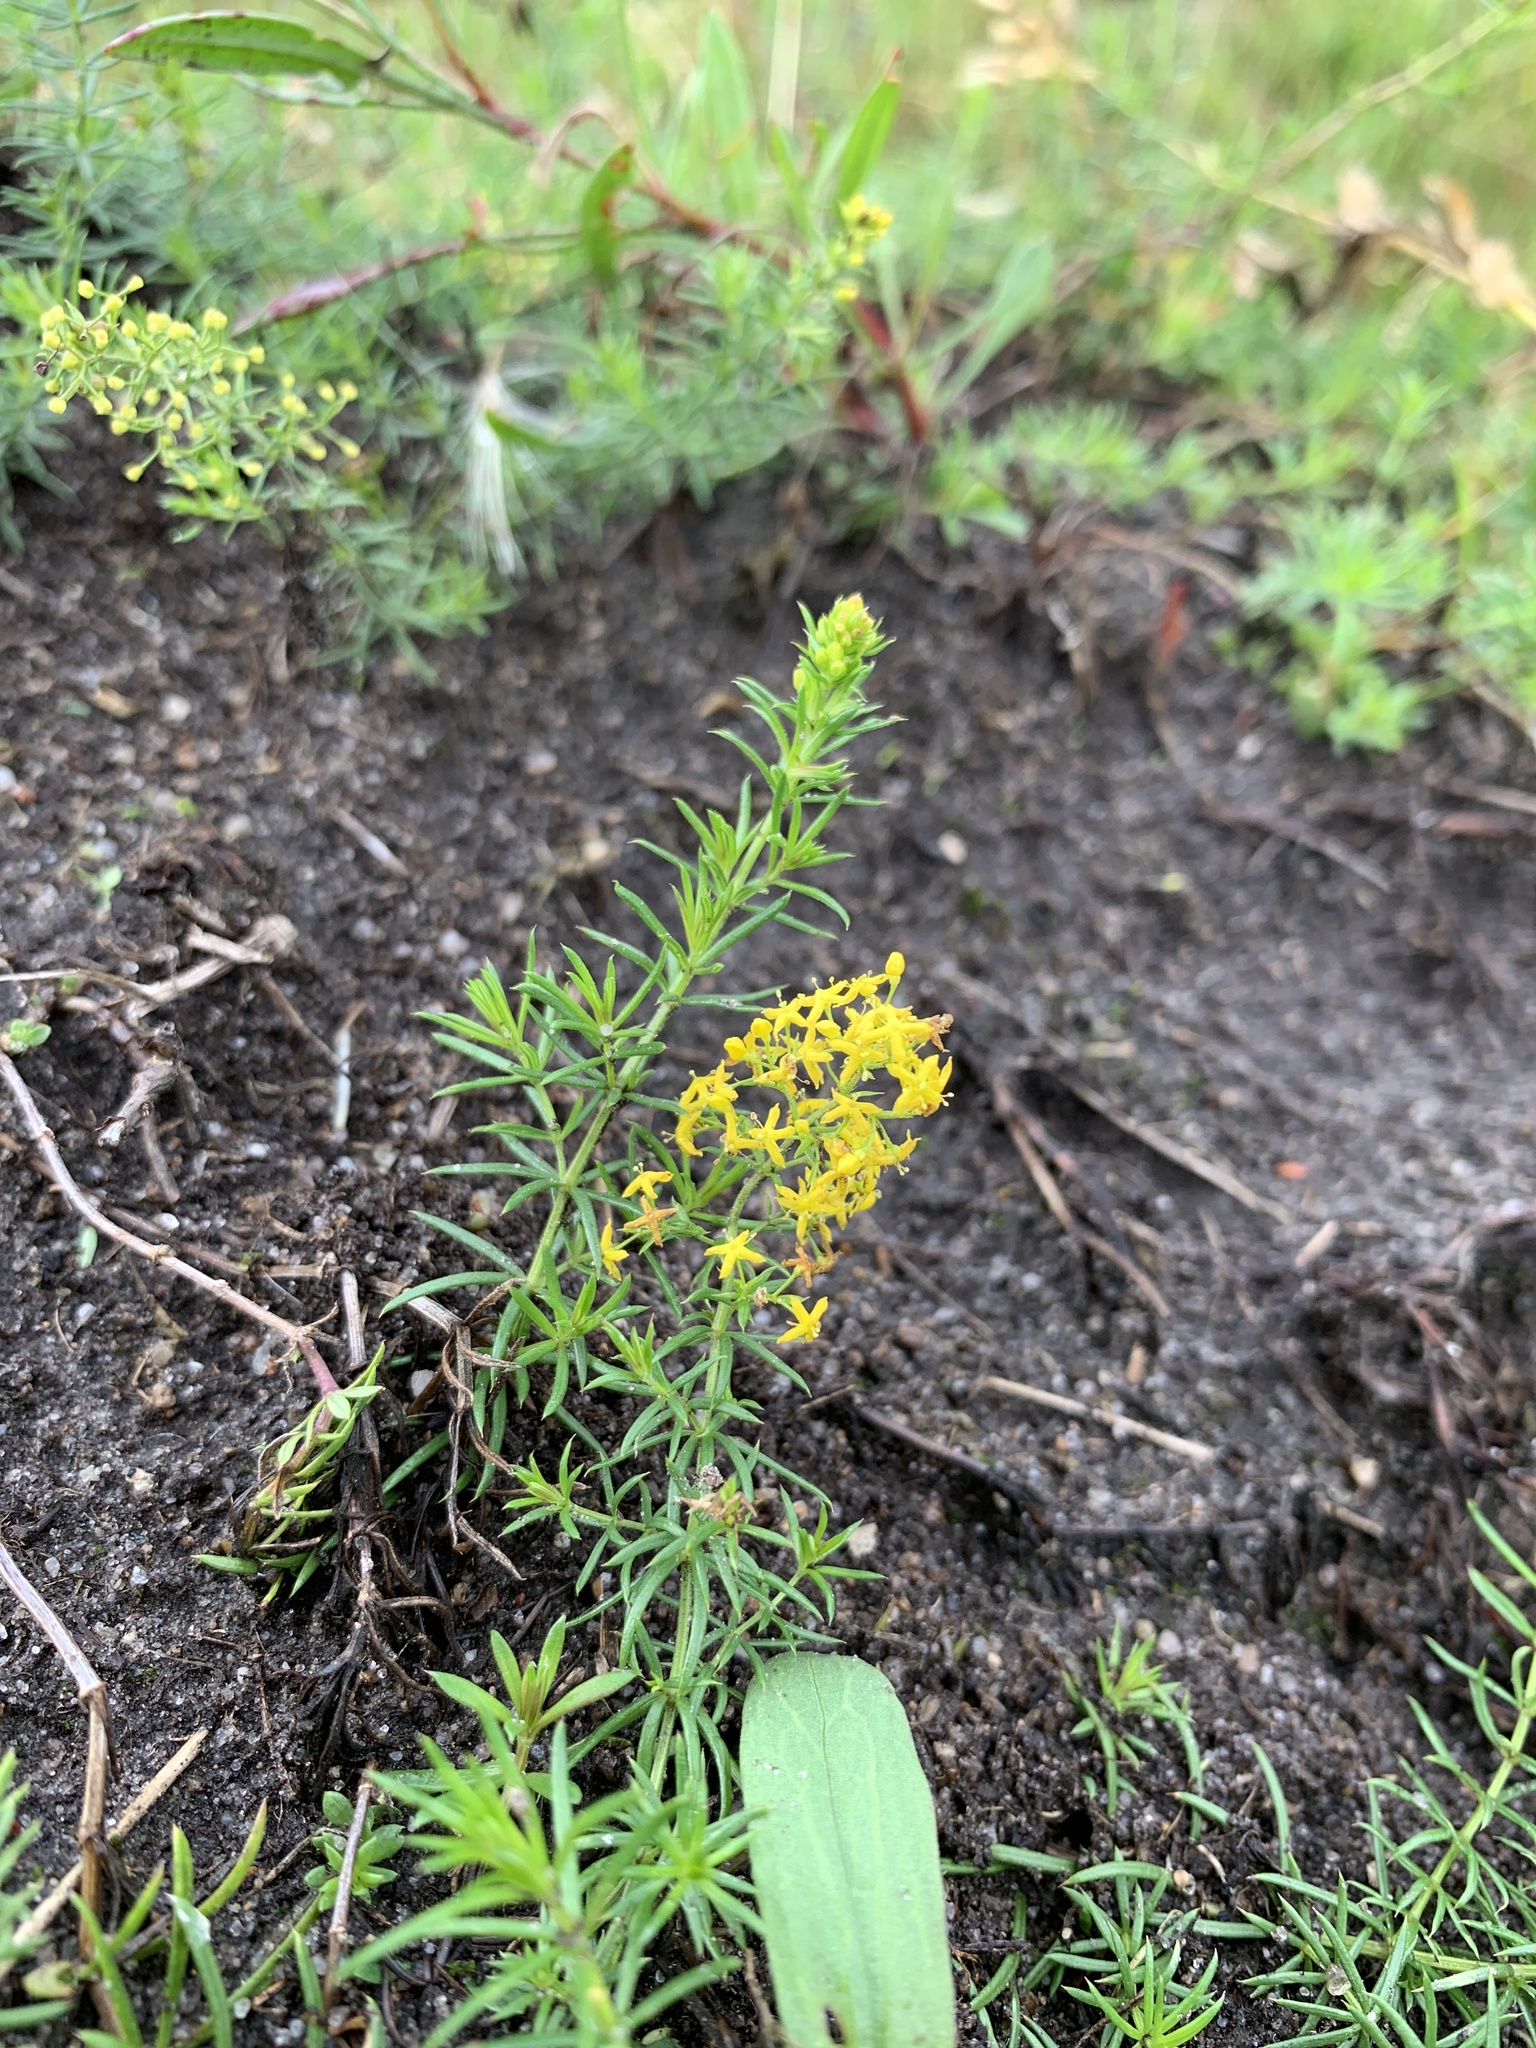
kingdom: Plantae
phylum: Tracheophyta
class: Magnoliopsida
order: Gentianales
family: Rubiaceae
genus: Galium
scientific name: Galium verum
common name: Lady's bedstraw
